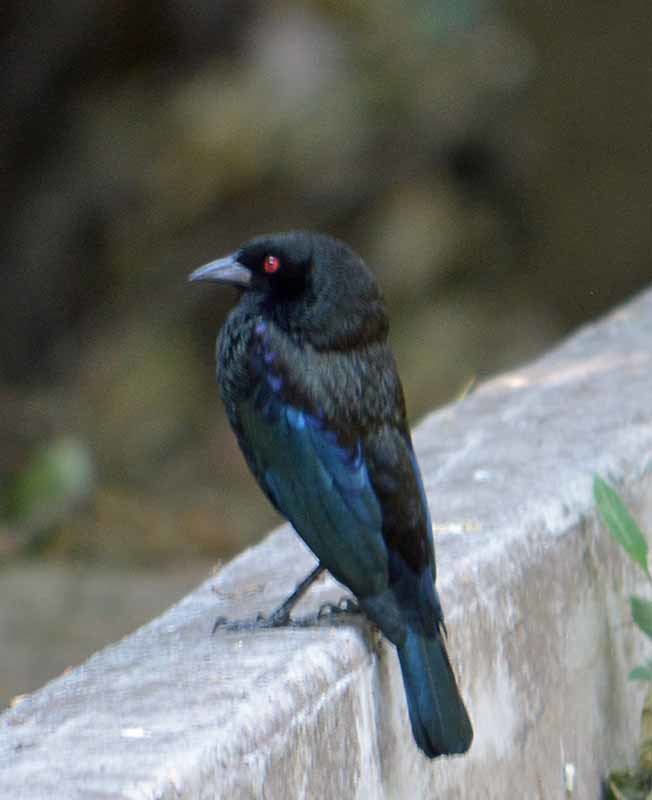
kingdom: Animalia
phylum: Chordata
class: Aves
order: Passeriformes
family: Icteridae
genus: Molothrus
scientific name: Molothrus aeneus
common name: Bronzed cowbird
